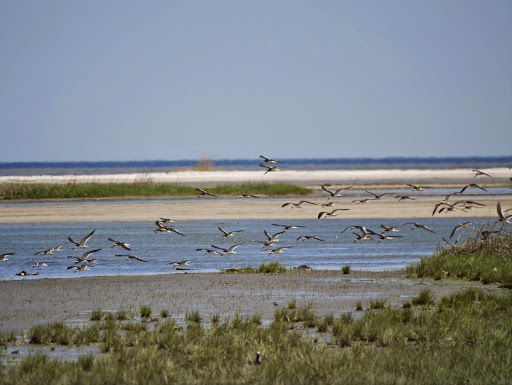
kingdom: Animalia
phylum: Chordata
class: Aves
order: Charadriiformes
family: Laridae
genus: Rynchops
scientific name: Rynchops niger
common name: Black skimmer
